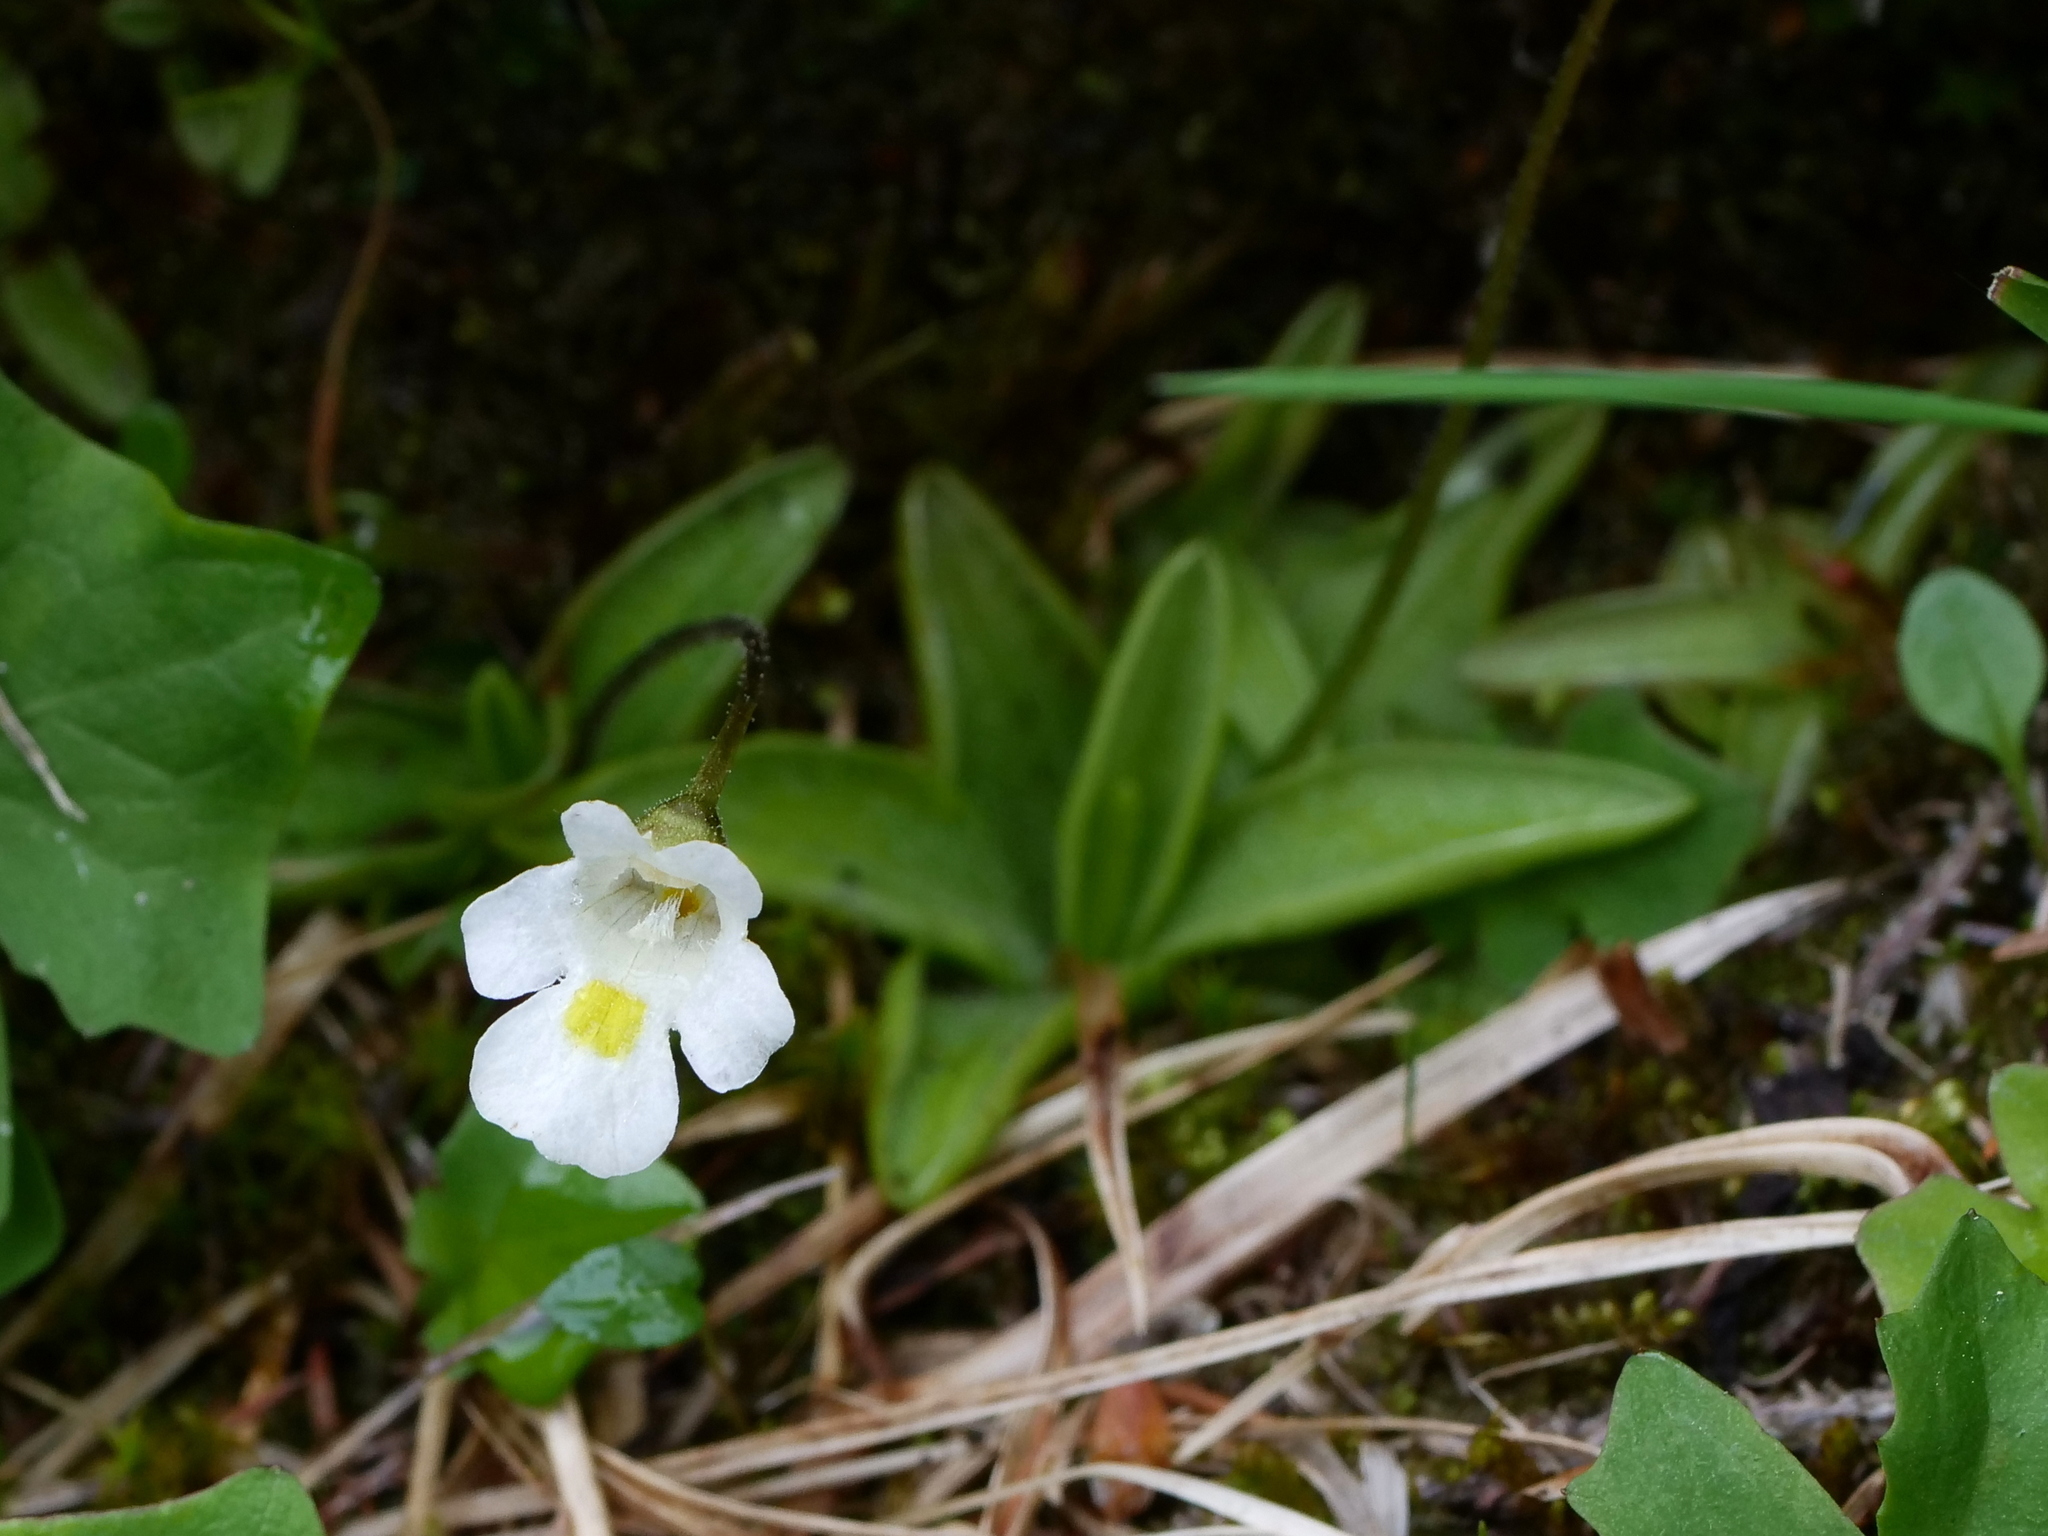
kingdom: Plantae
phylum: Tracheophyta
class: Magnoliopsida
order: Lamiales
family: Lentibulariaceae
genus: Pinguicula
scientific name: Pinguicula alpina
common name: Alpine butterwort
